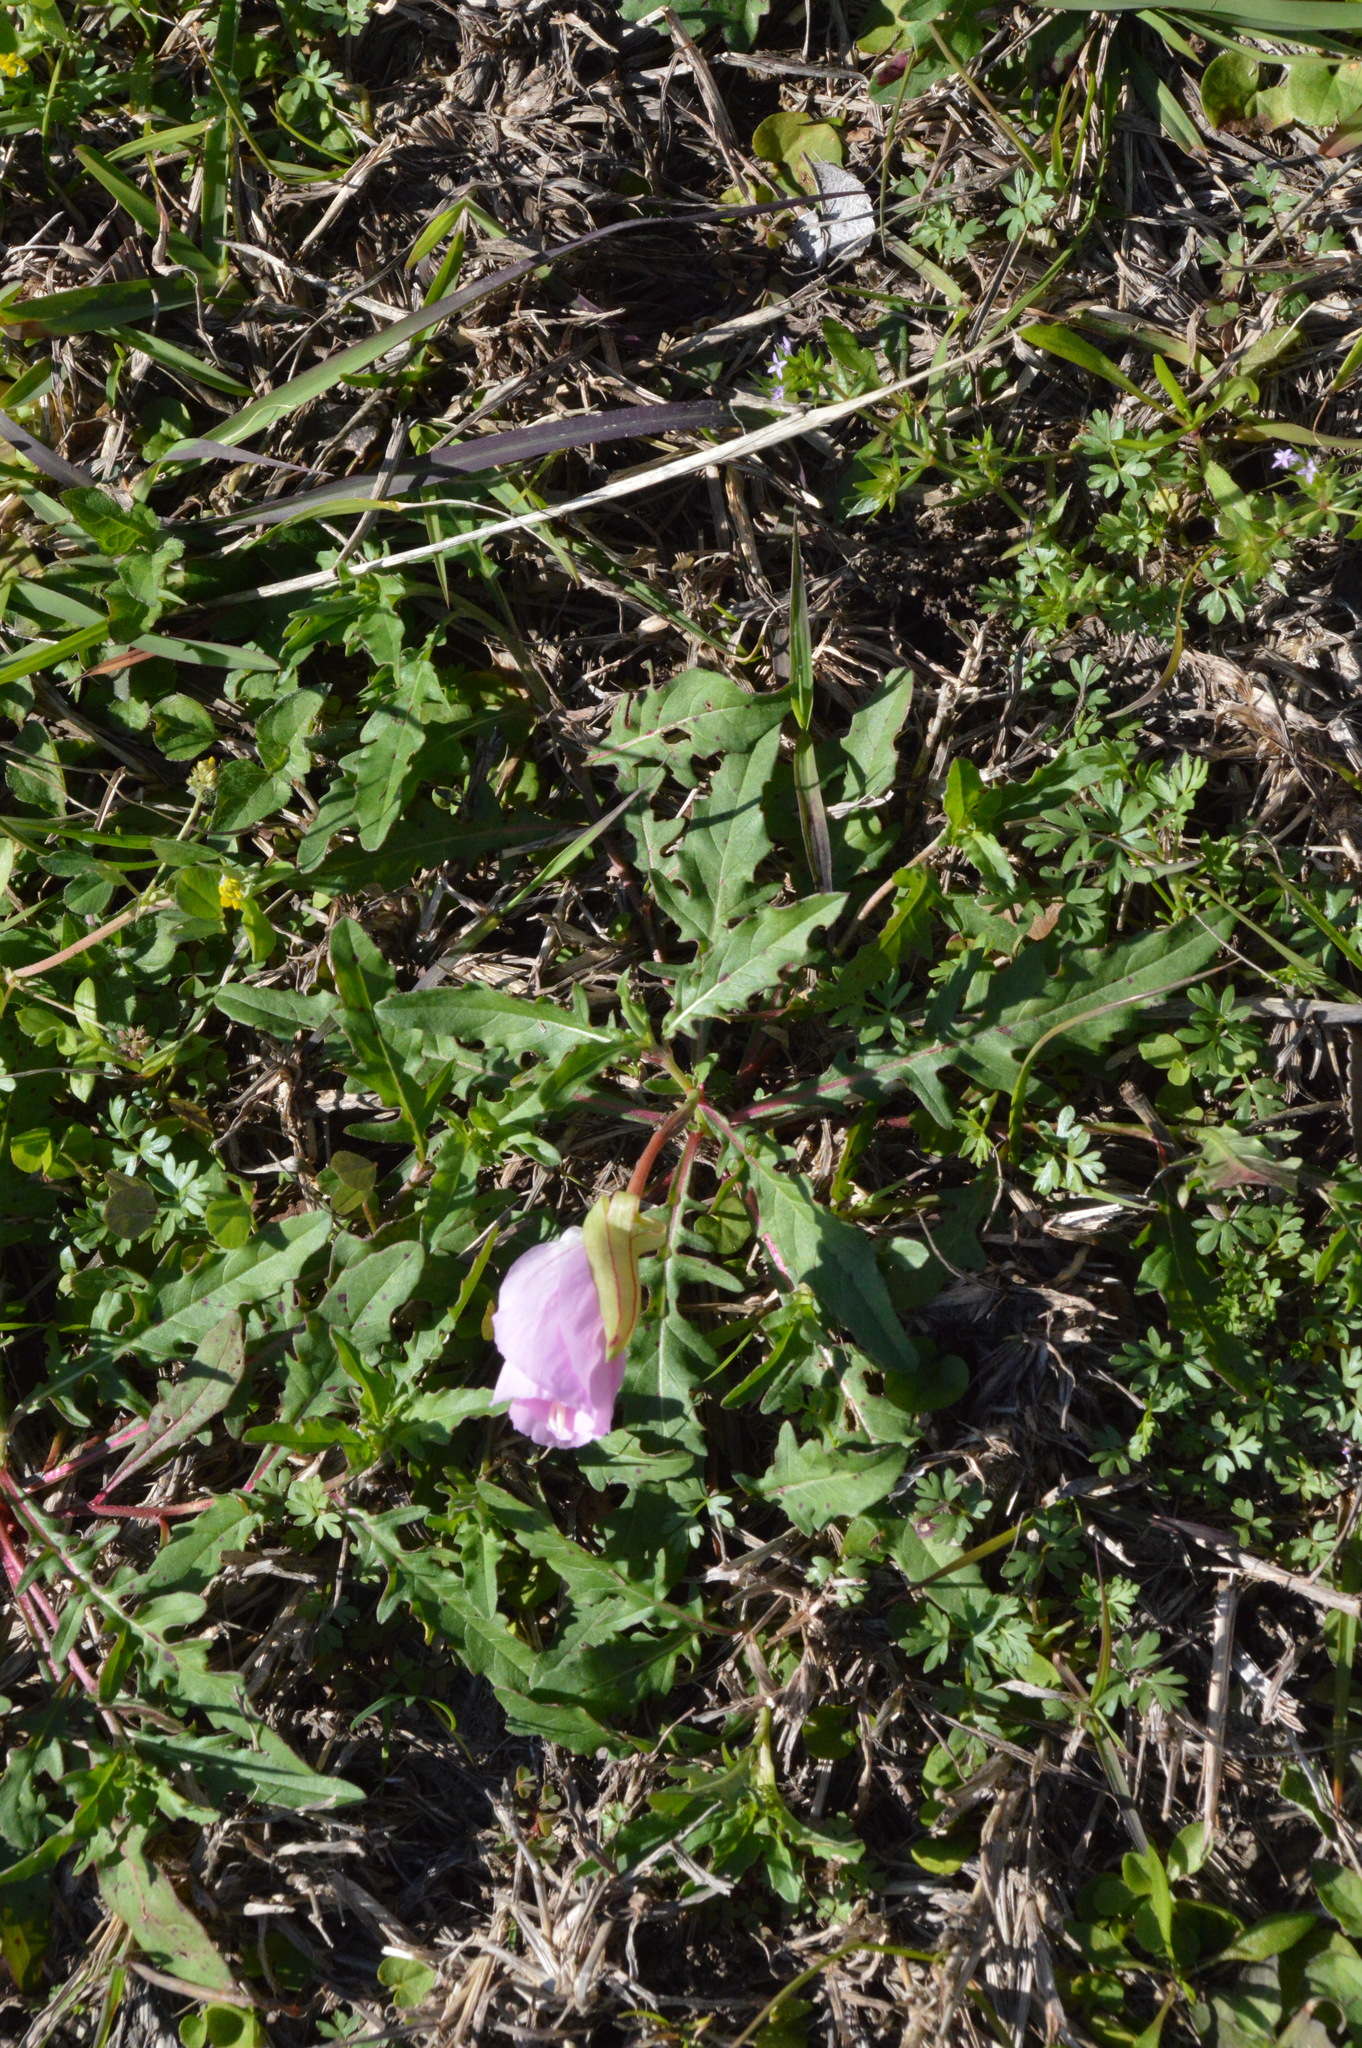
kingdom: Plantae
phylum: Tracheophyta
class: Magnoliopsida
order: Myrtales
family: Onagraceae
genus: Oenothera
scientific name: Oenothera speciosa
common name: White evening-primrose
